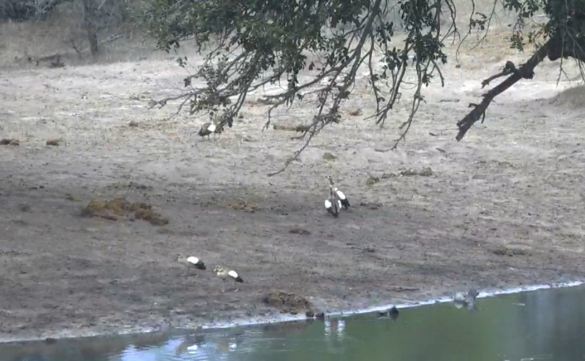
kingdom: Animalia
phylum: Chordata
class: Aves
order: Anseriformes
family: Anatidae
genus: Alopochen
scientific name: Alopochen aegyptiaca
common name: Egyptian goose
